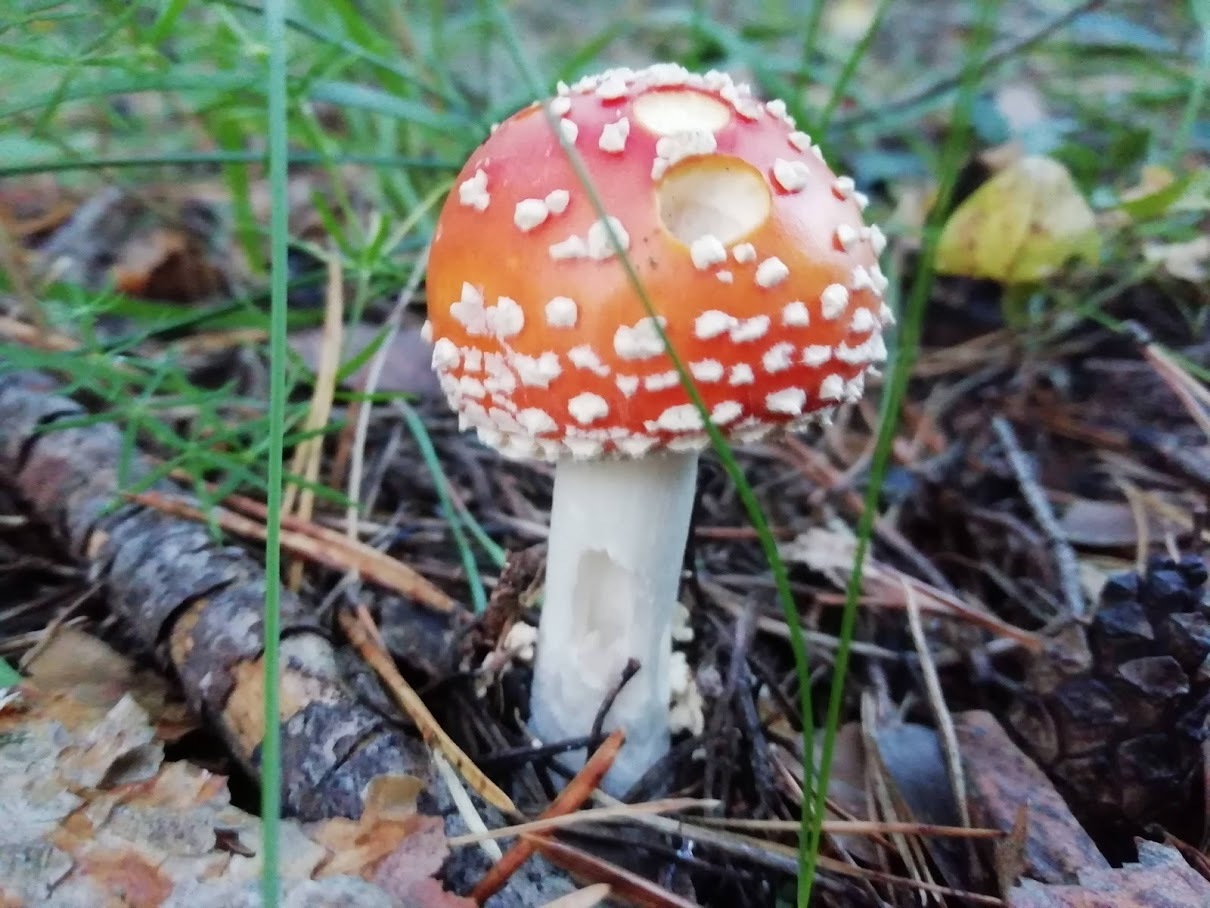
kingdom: Fungi
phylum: Basidiomycota
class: Agaricomycetes
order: Agaricales
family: Amanitaceae
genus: Amanita
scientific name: Amanita muscaria
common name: Fly agaric
